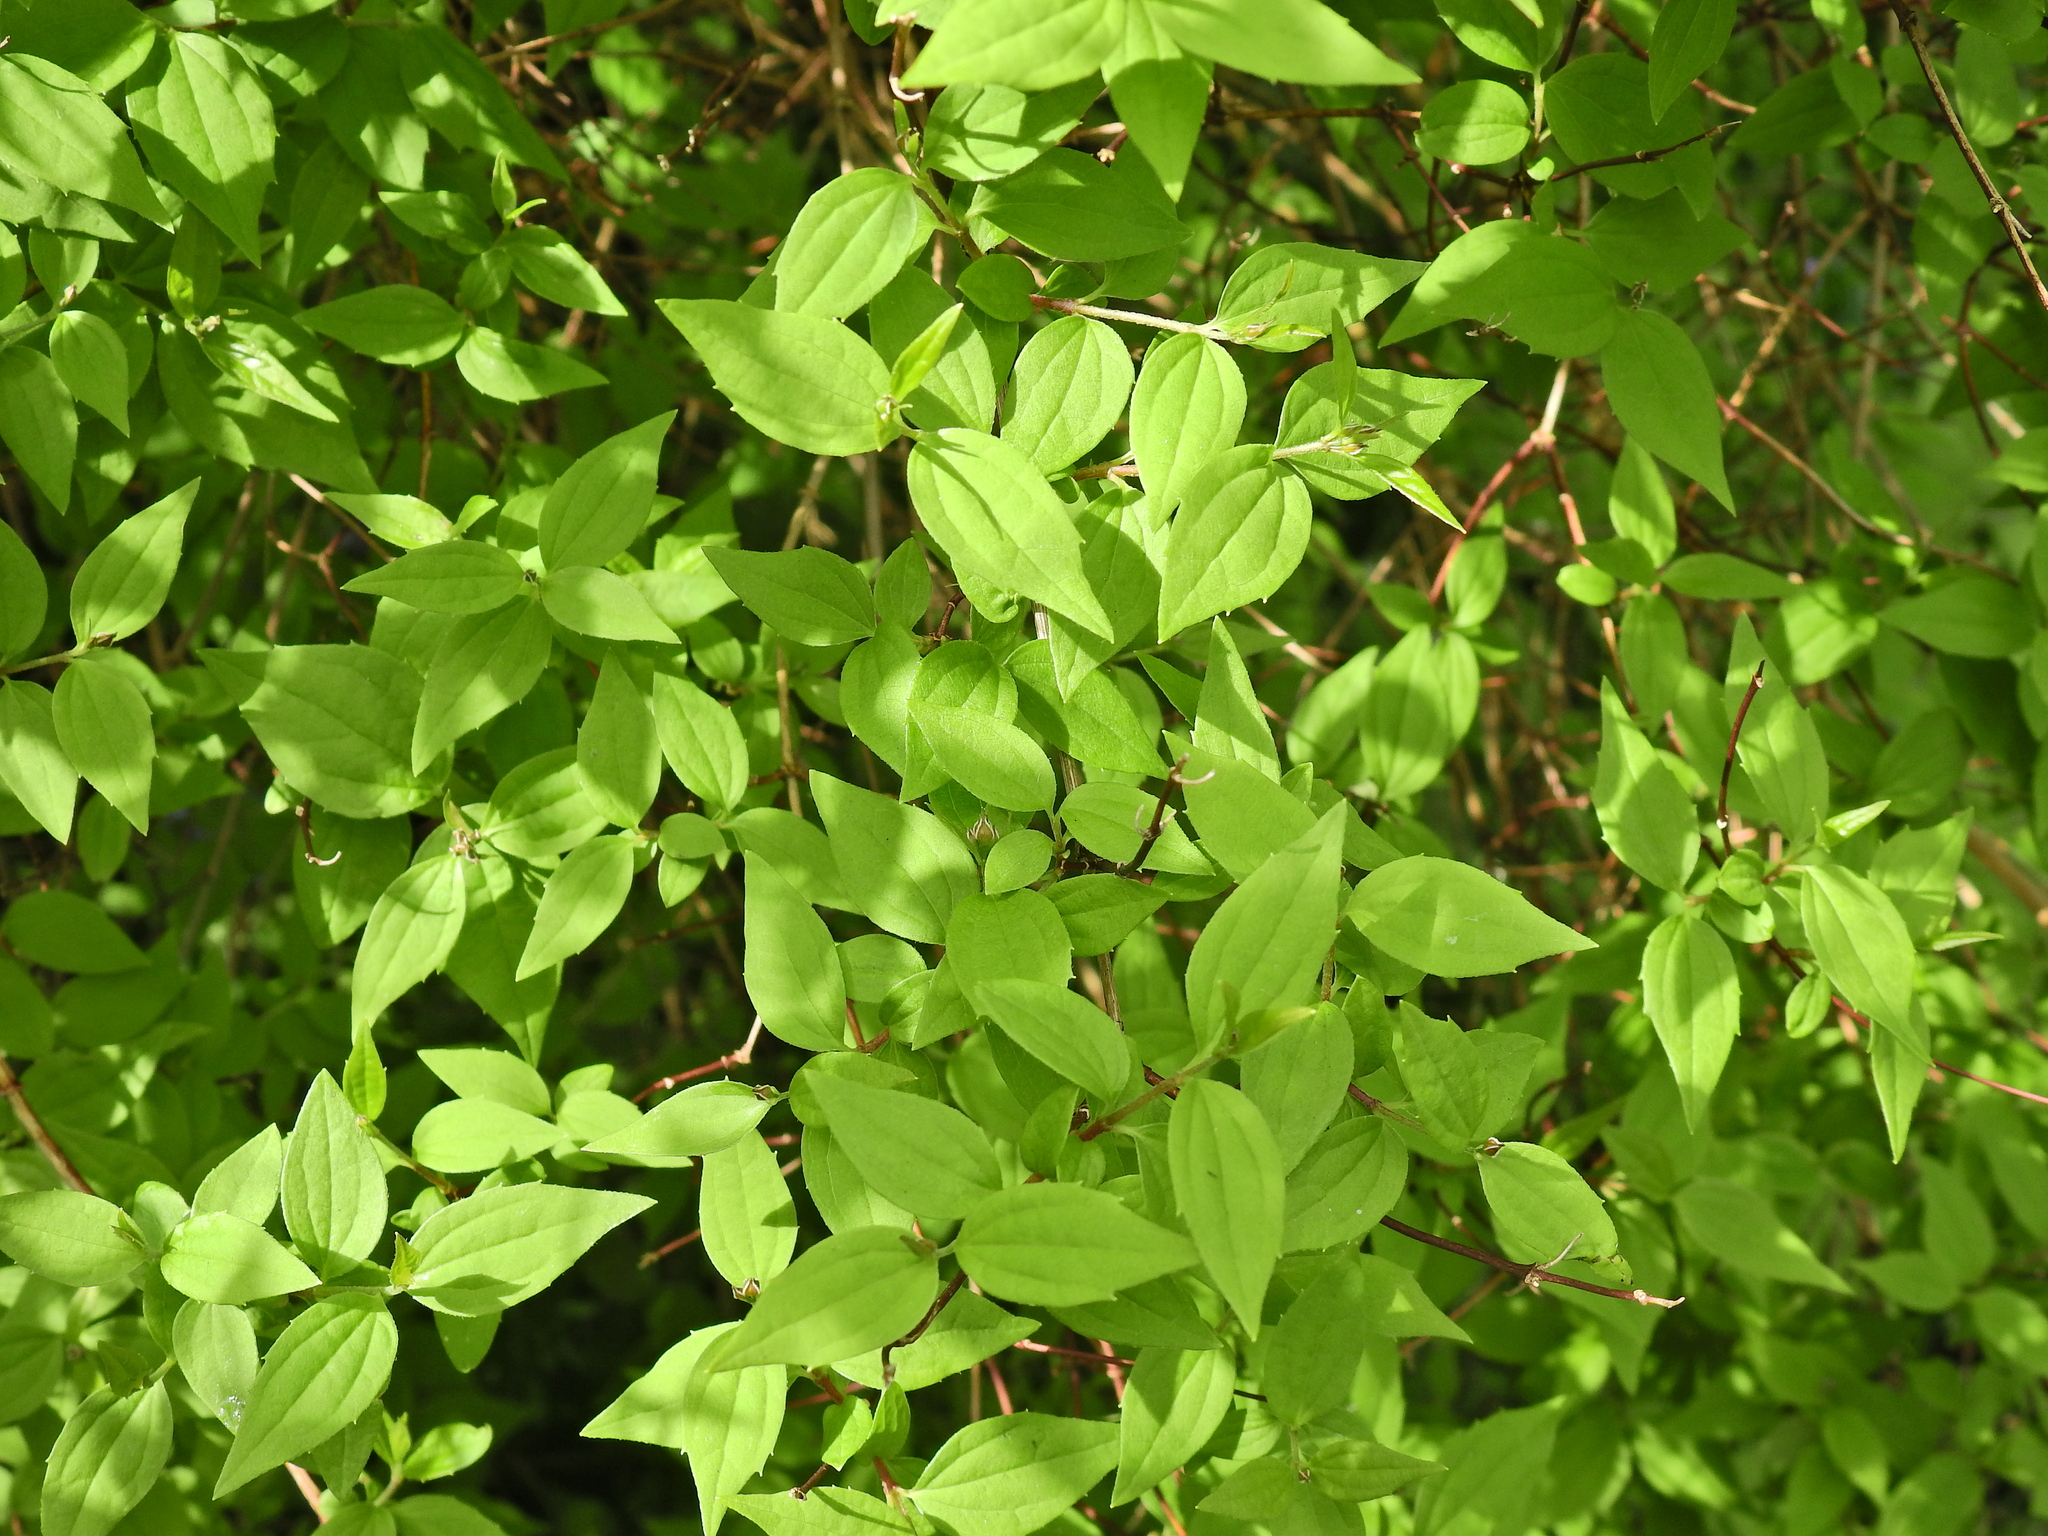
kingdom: Plantae
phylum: Tracheophyta
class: Magnoliopsida
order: Cornales
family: Hydrangeaceae
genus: Philadelphus
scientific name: Philadelphus coronarius
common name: Mock orange
